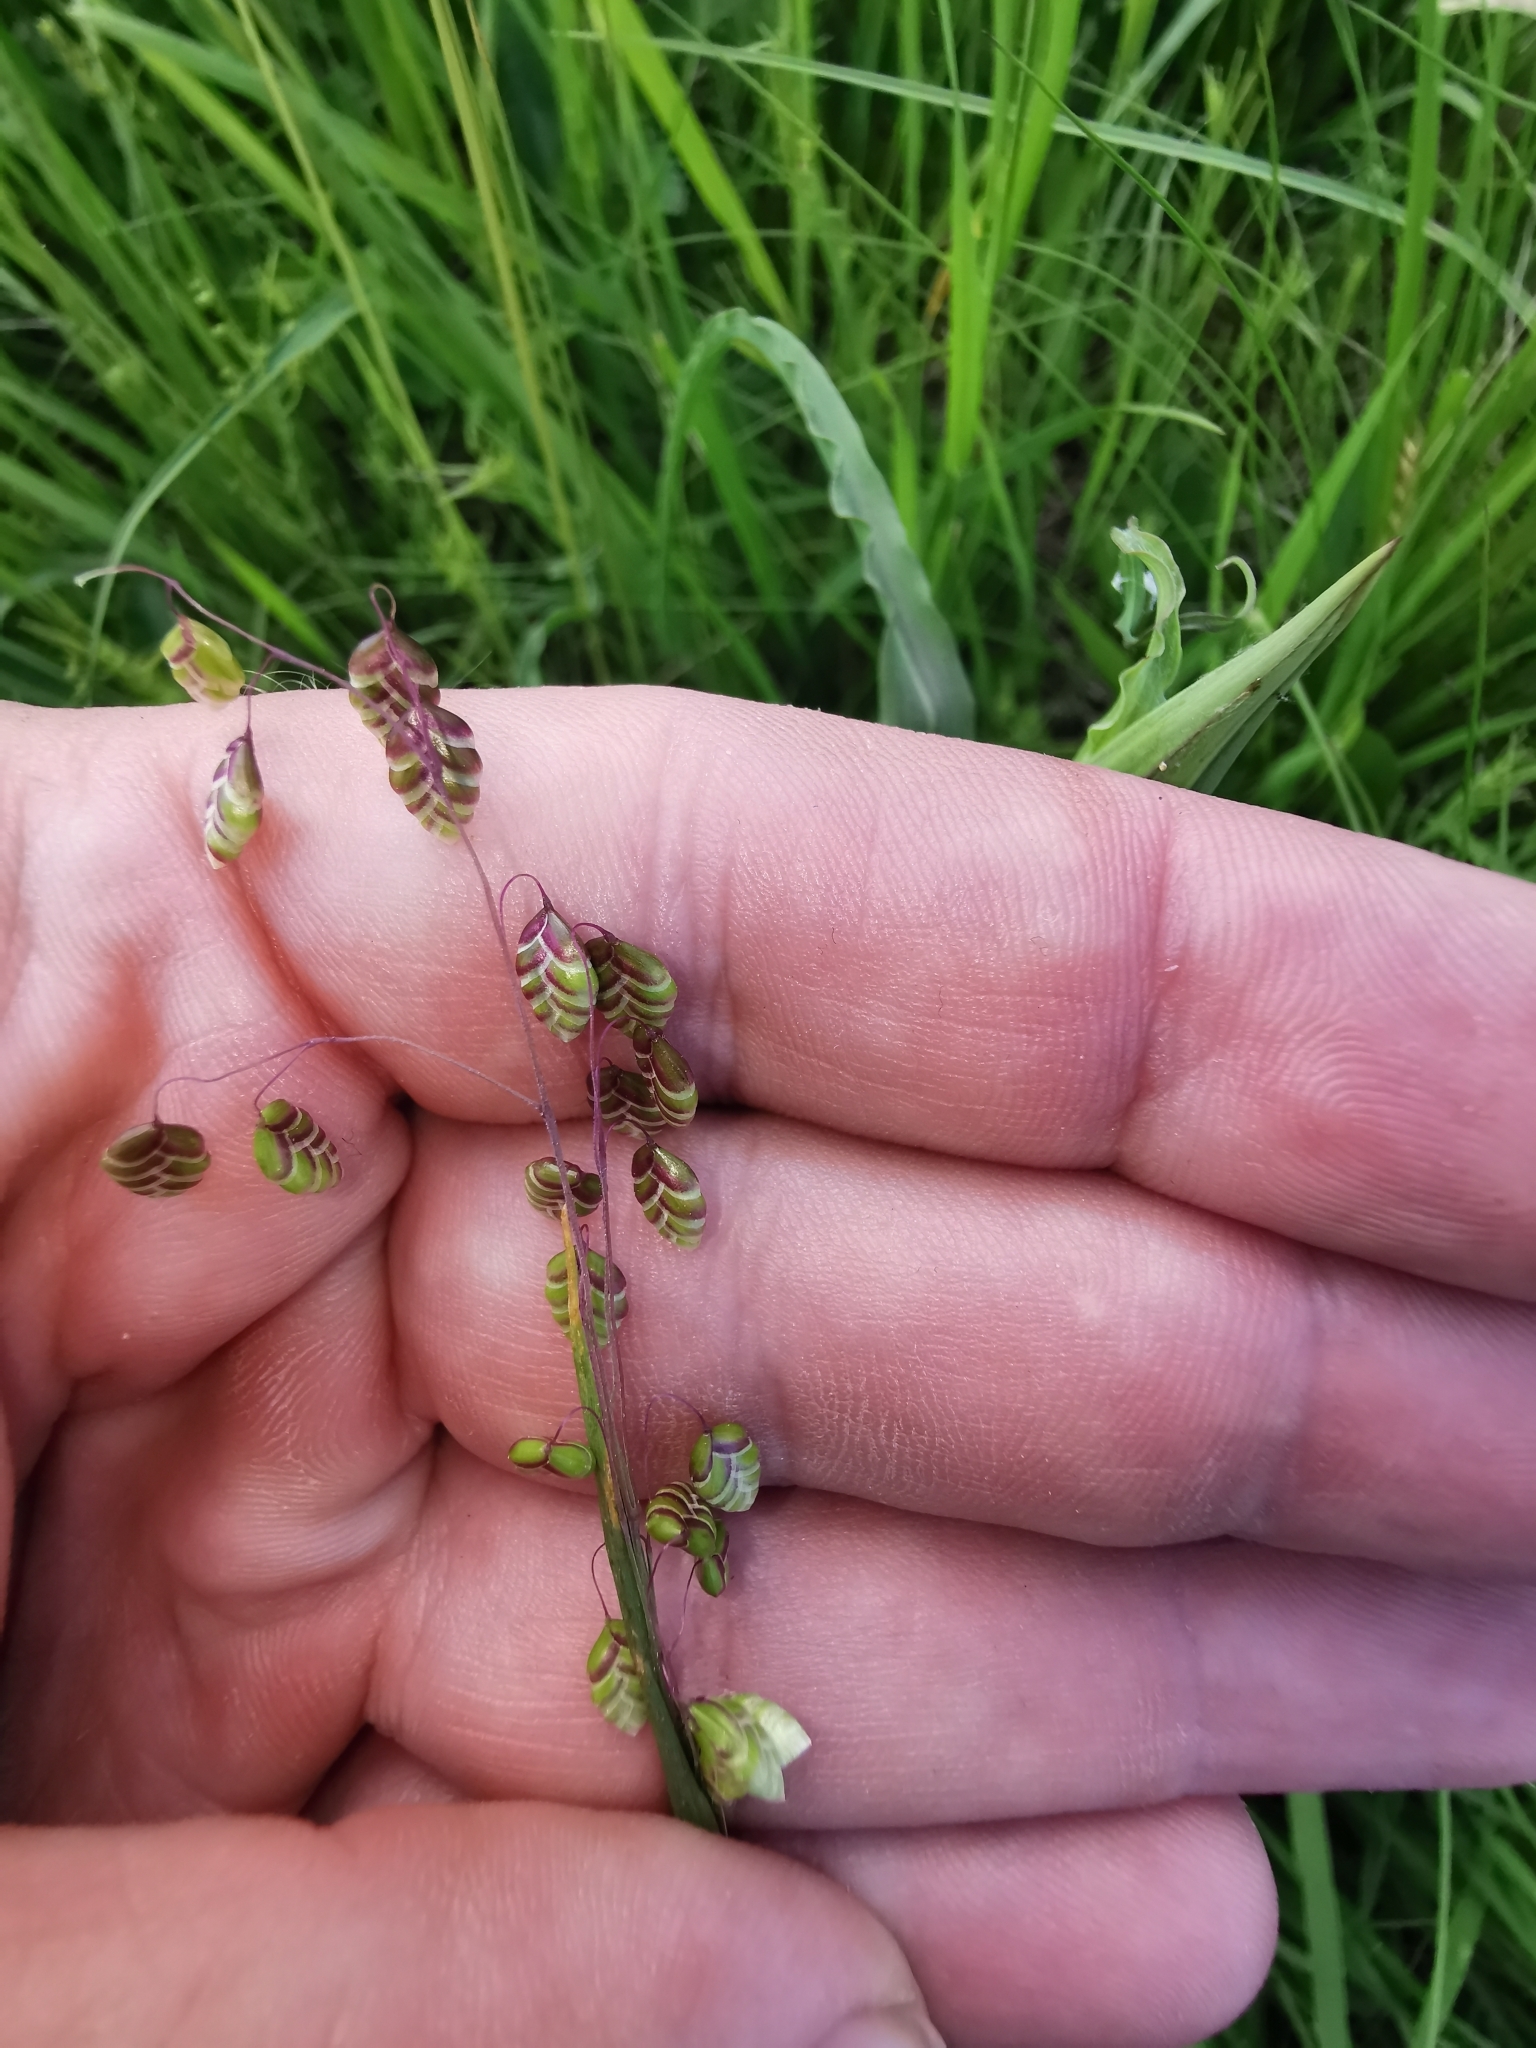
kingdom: Plantae
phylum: Tracheophyta
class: Liliopsida
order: Poales
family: Poaceae
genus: Briza
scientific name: Briza media
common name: Quaking grass
